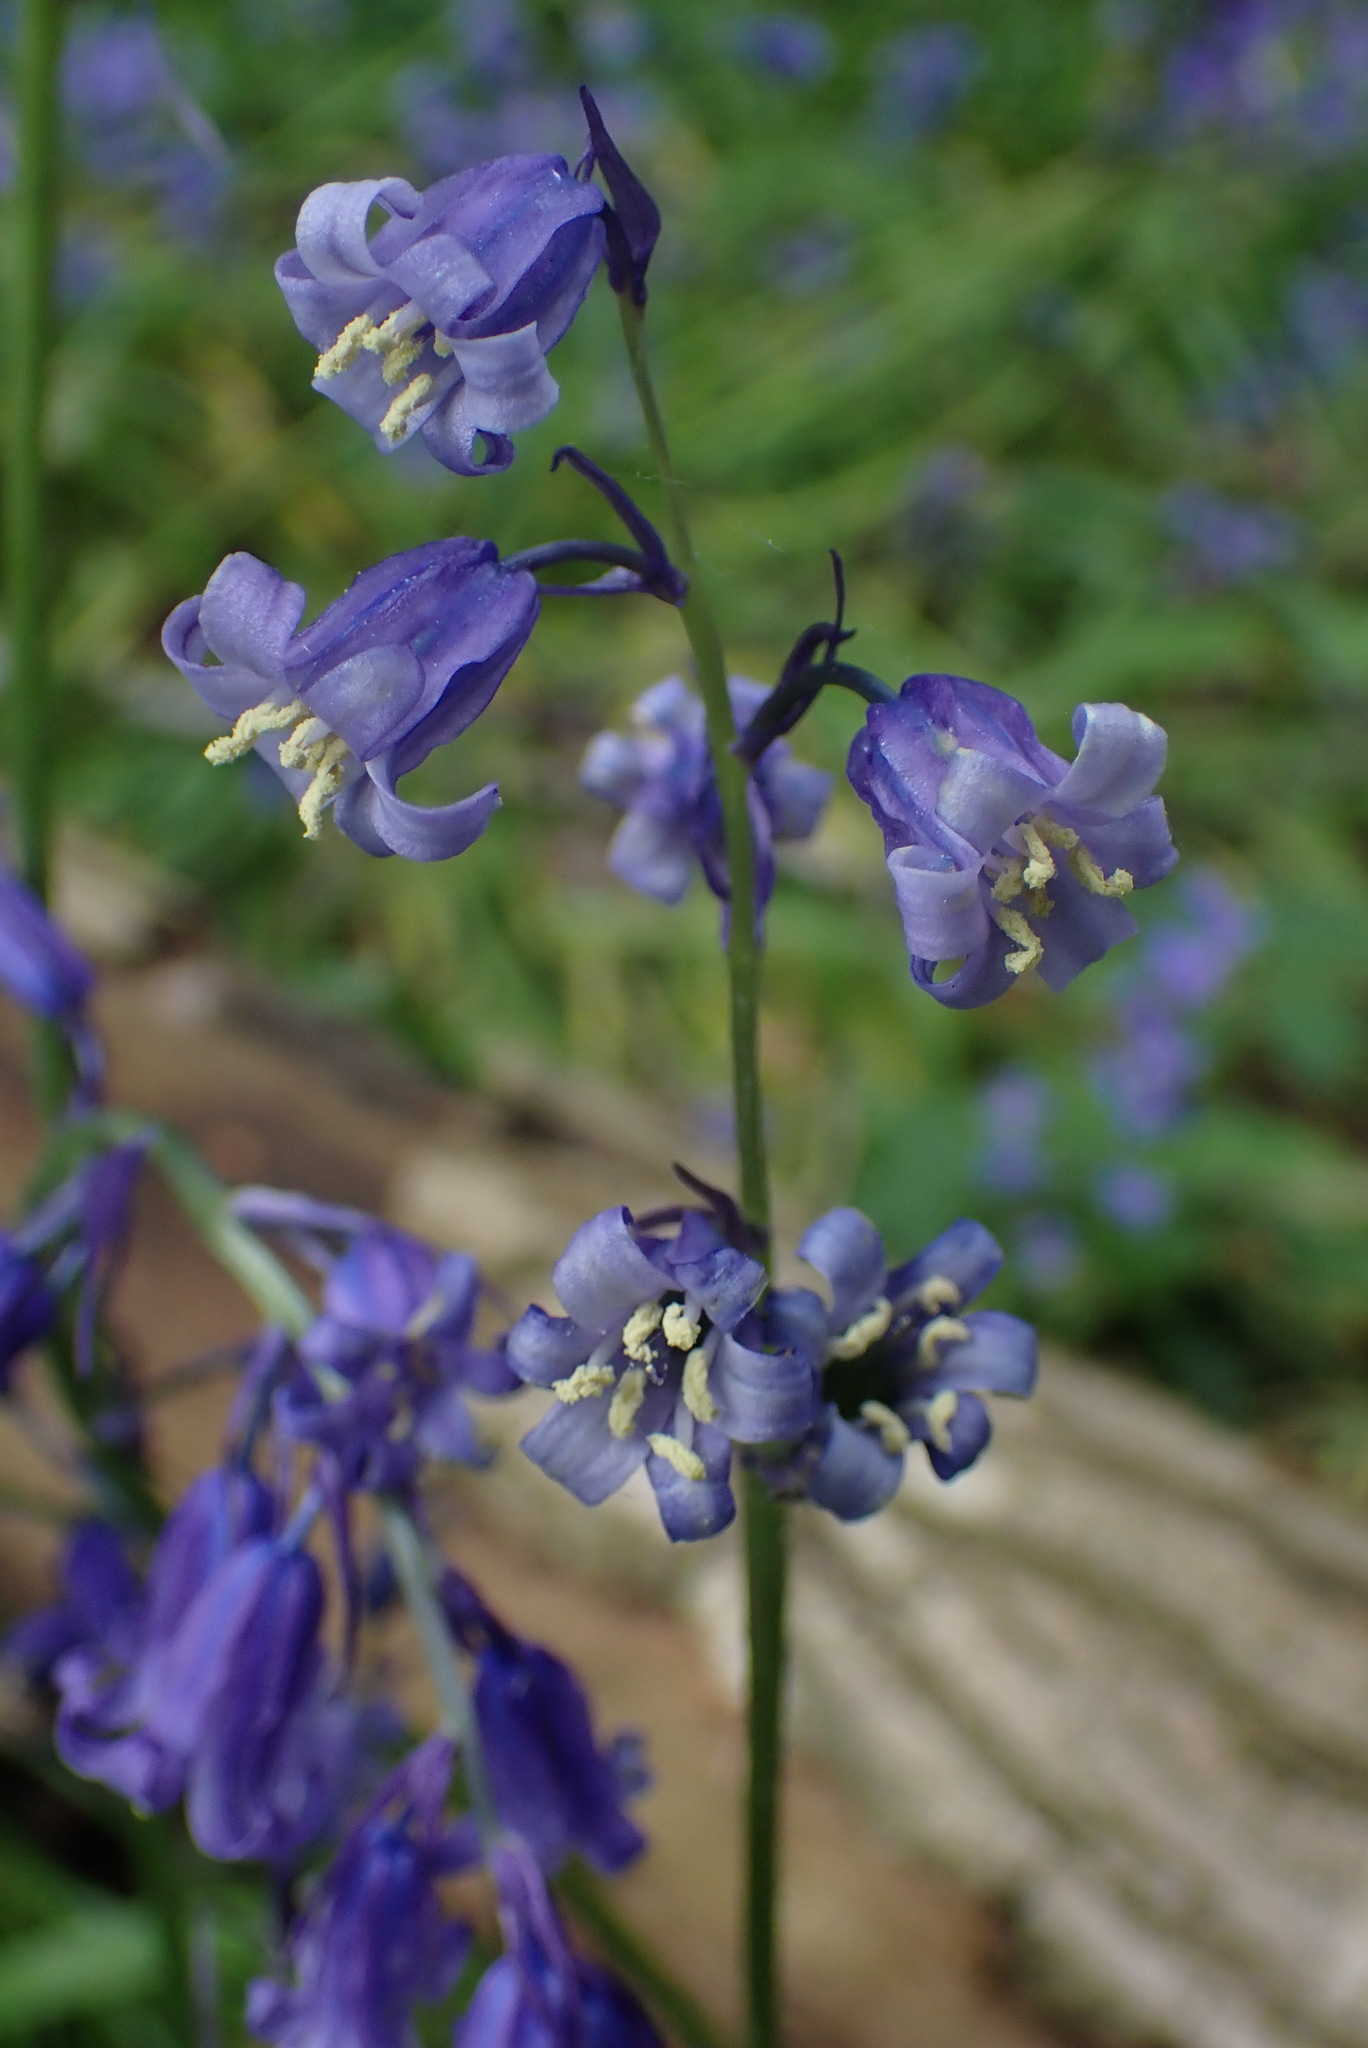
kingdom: Plantae
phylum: Tracheophyta
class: Liliopsida
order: Asparagales
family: Asparagaceae
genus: Hyacinthoides
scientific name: Hyacinthoides non-scripta
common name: Bluebell
